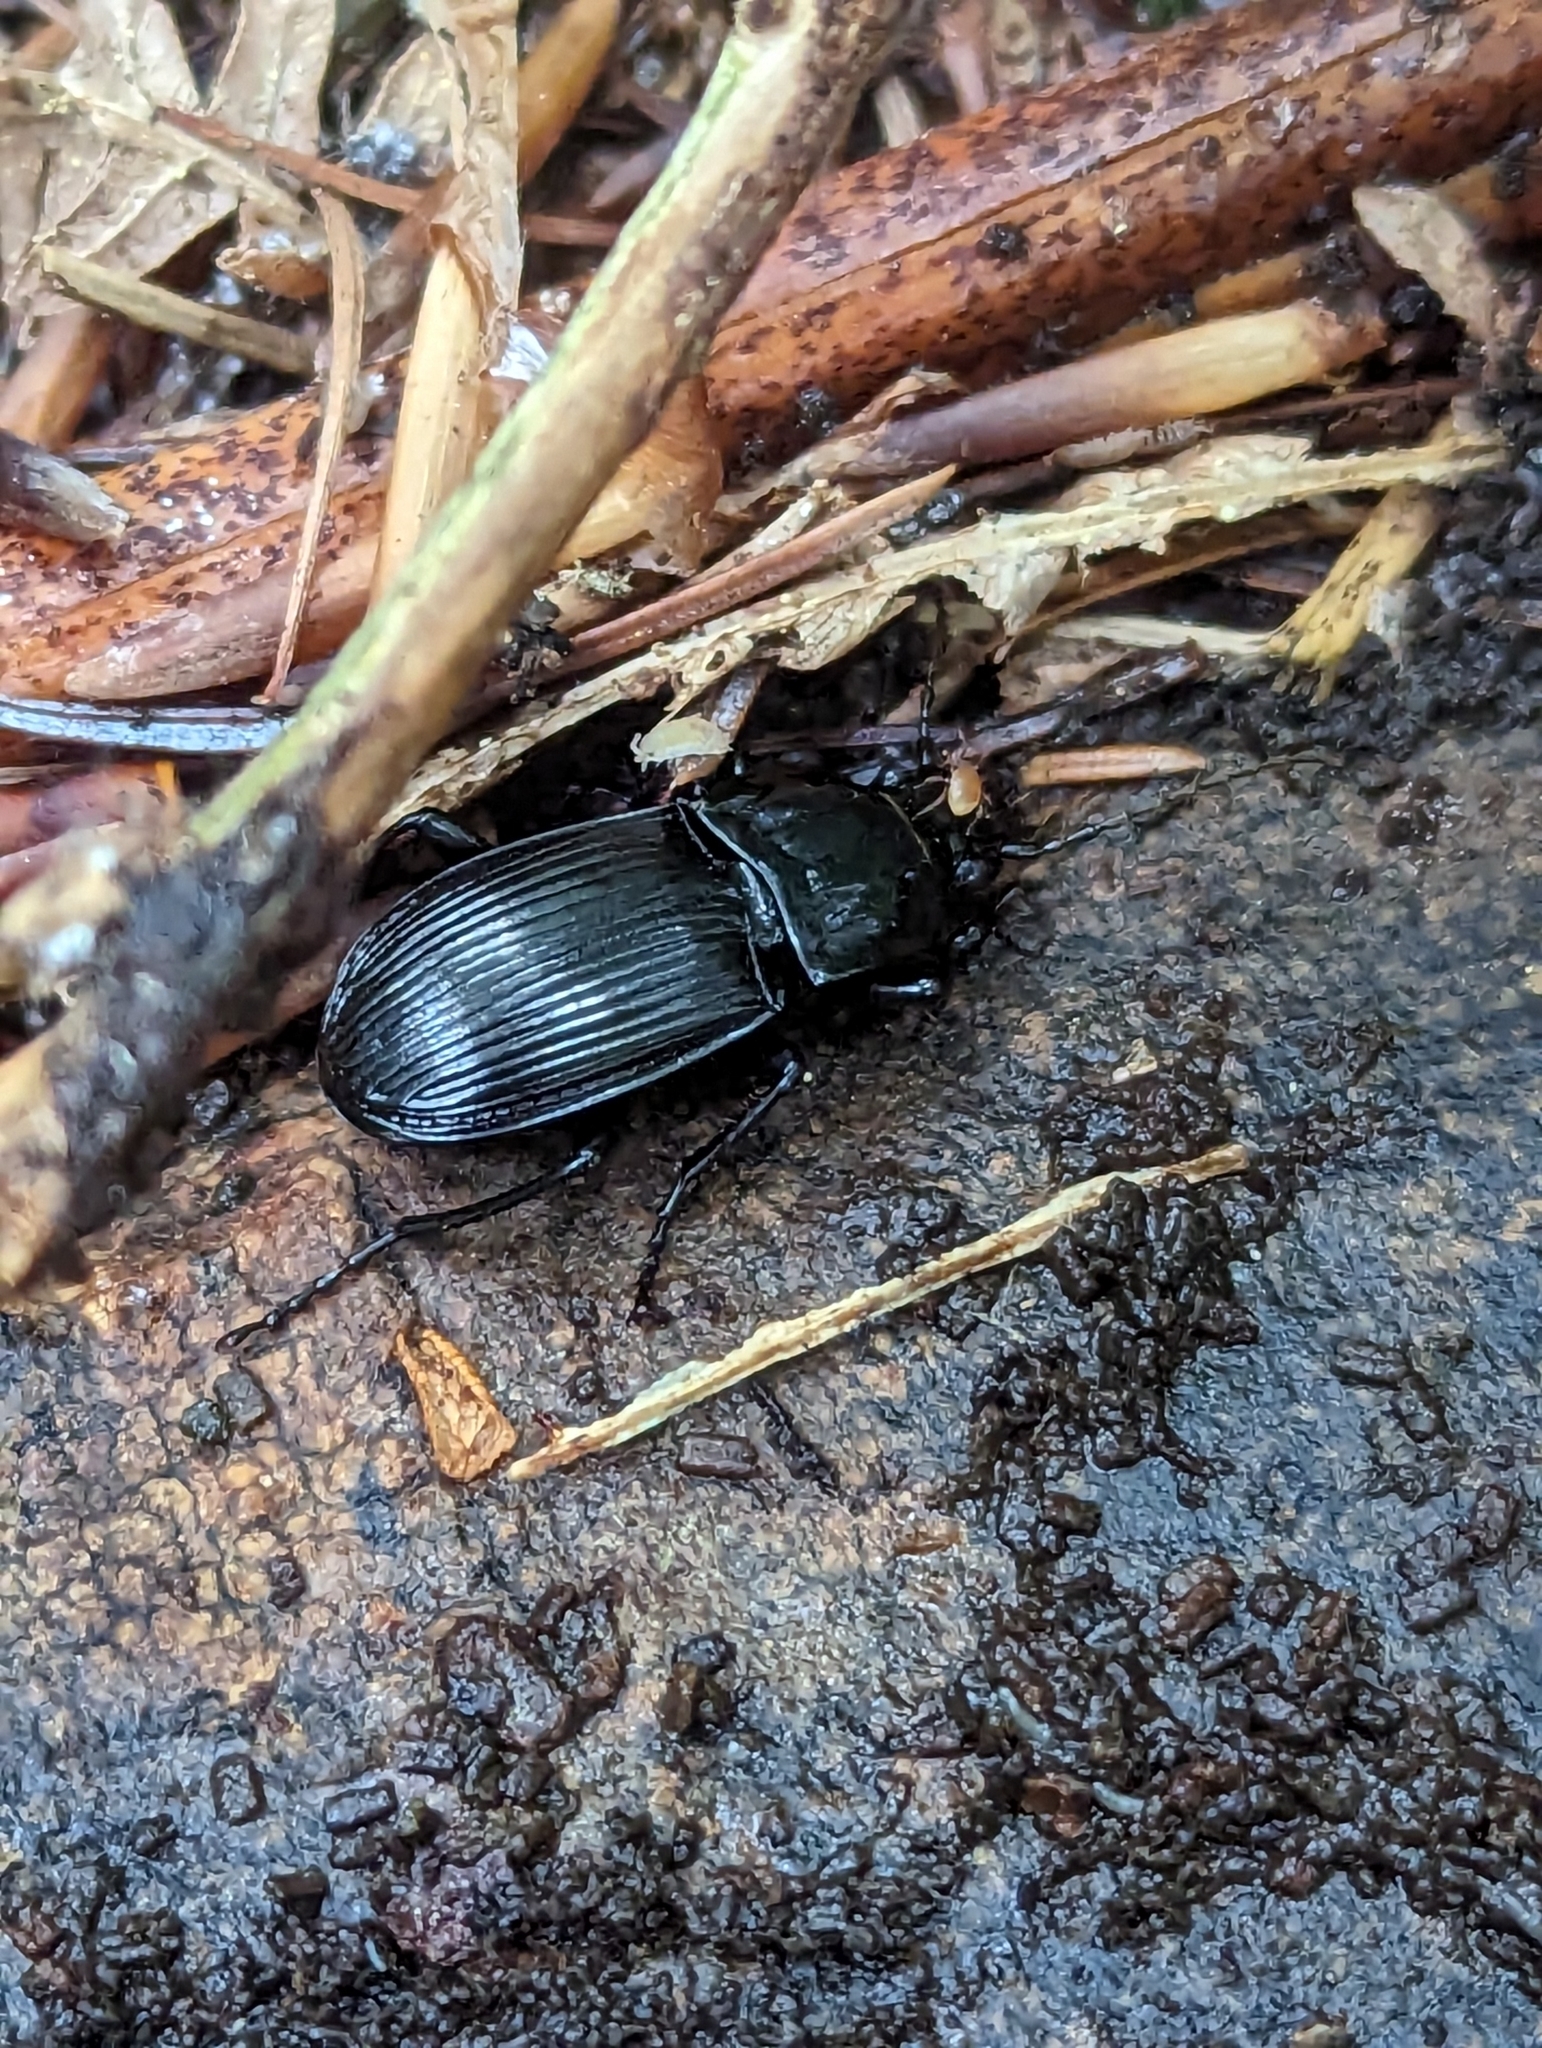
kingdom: Animalia
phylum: Arthropoda
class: Insecta
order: Coleoptera
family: Carabidae
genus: Abax
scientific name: Abax parallelepipedus
